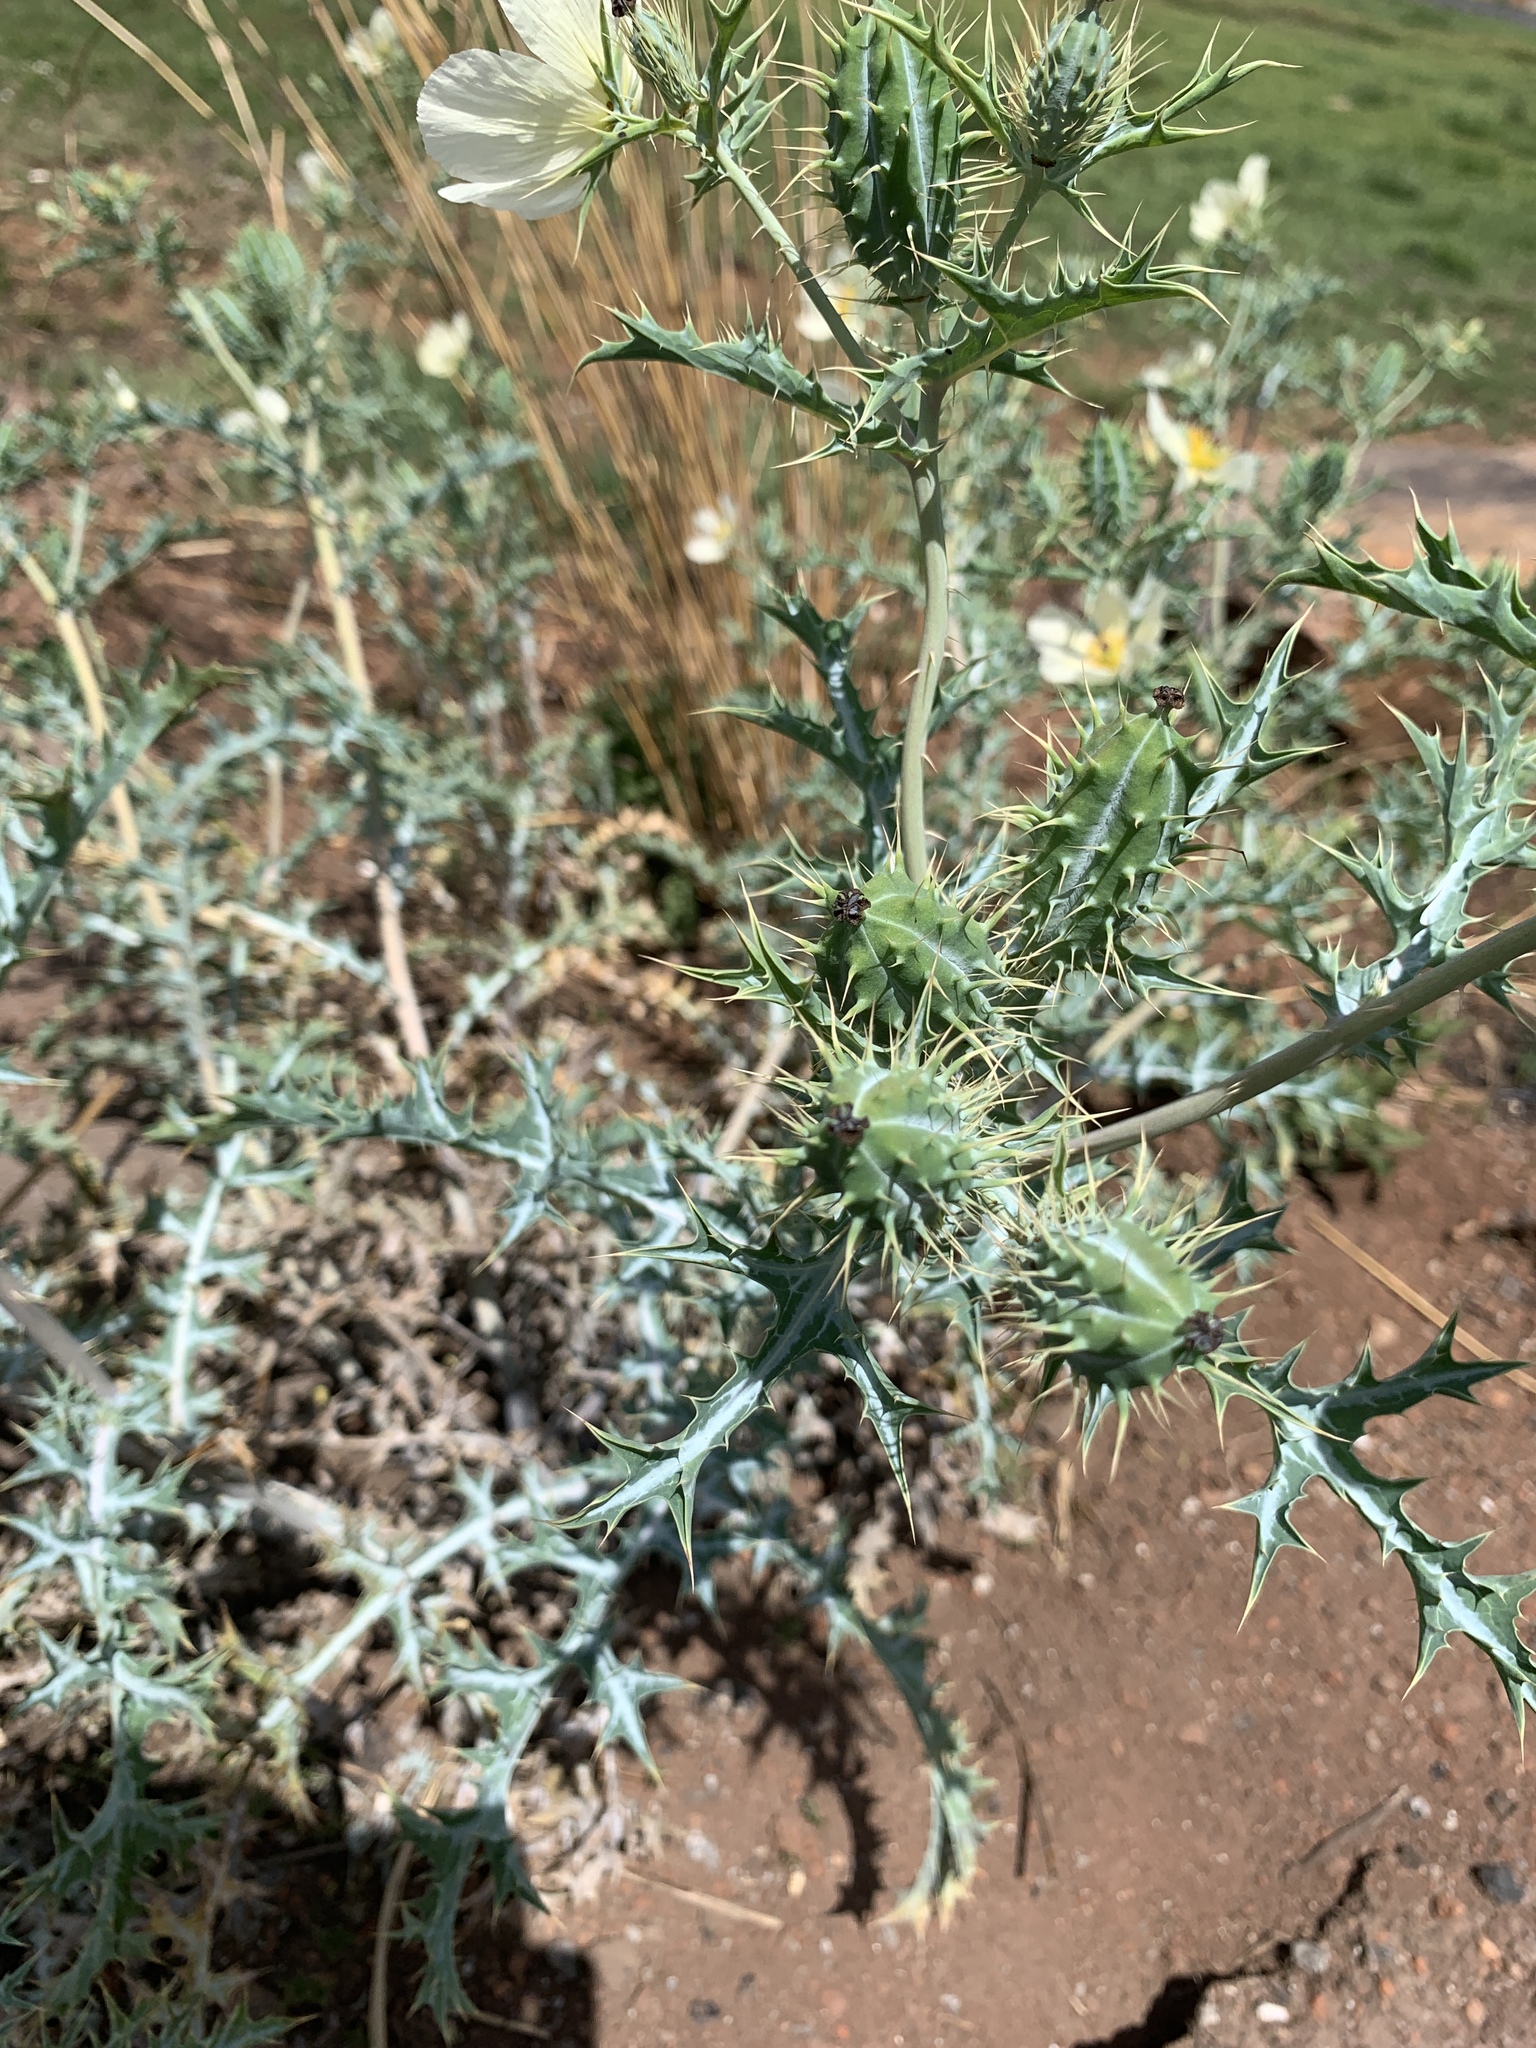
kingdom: Plantae
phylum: Tracheophyta
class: Magnoliopsida
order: Ranunculales
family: Papaveraceae
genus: Argemone
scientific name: Argemone ochroleuca
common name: White-flower mexican-poppy
